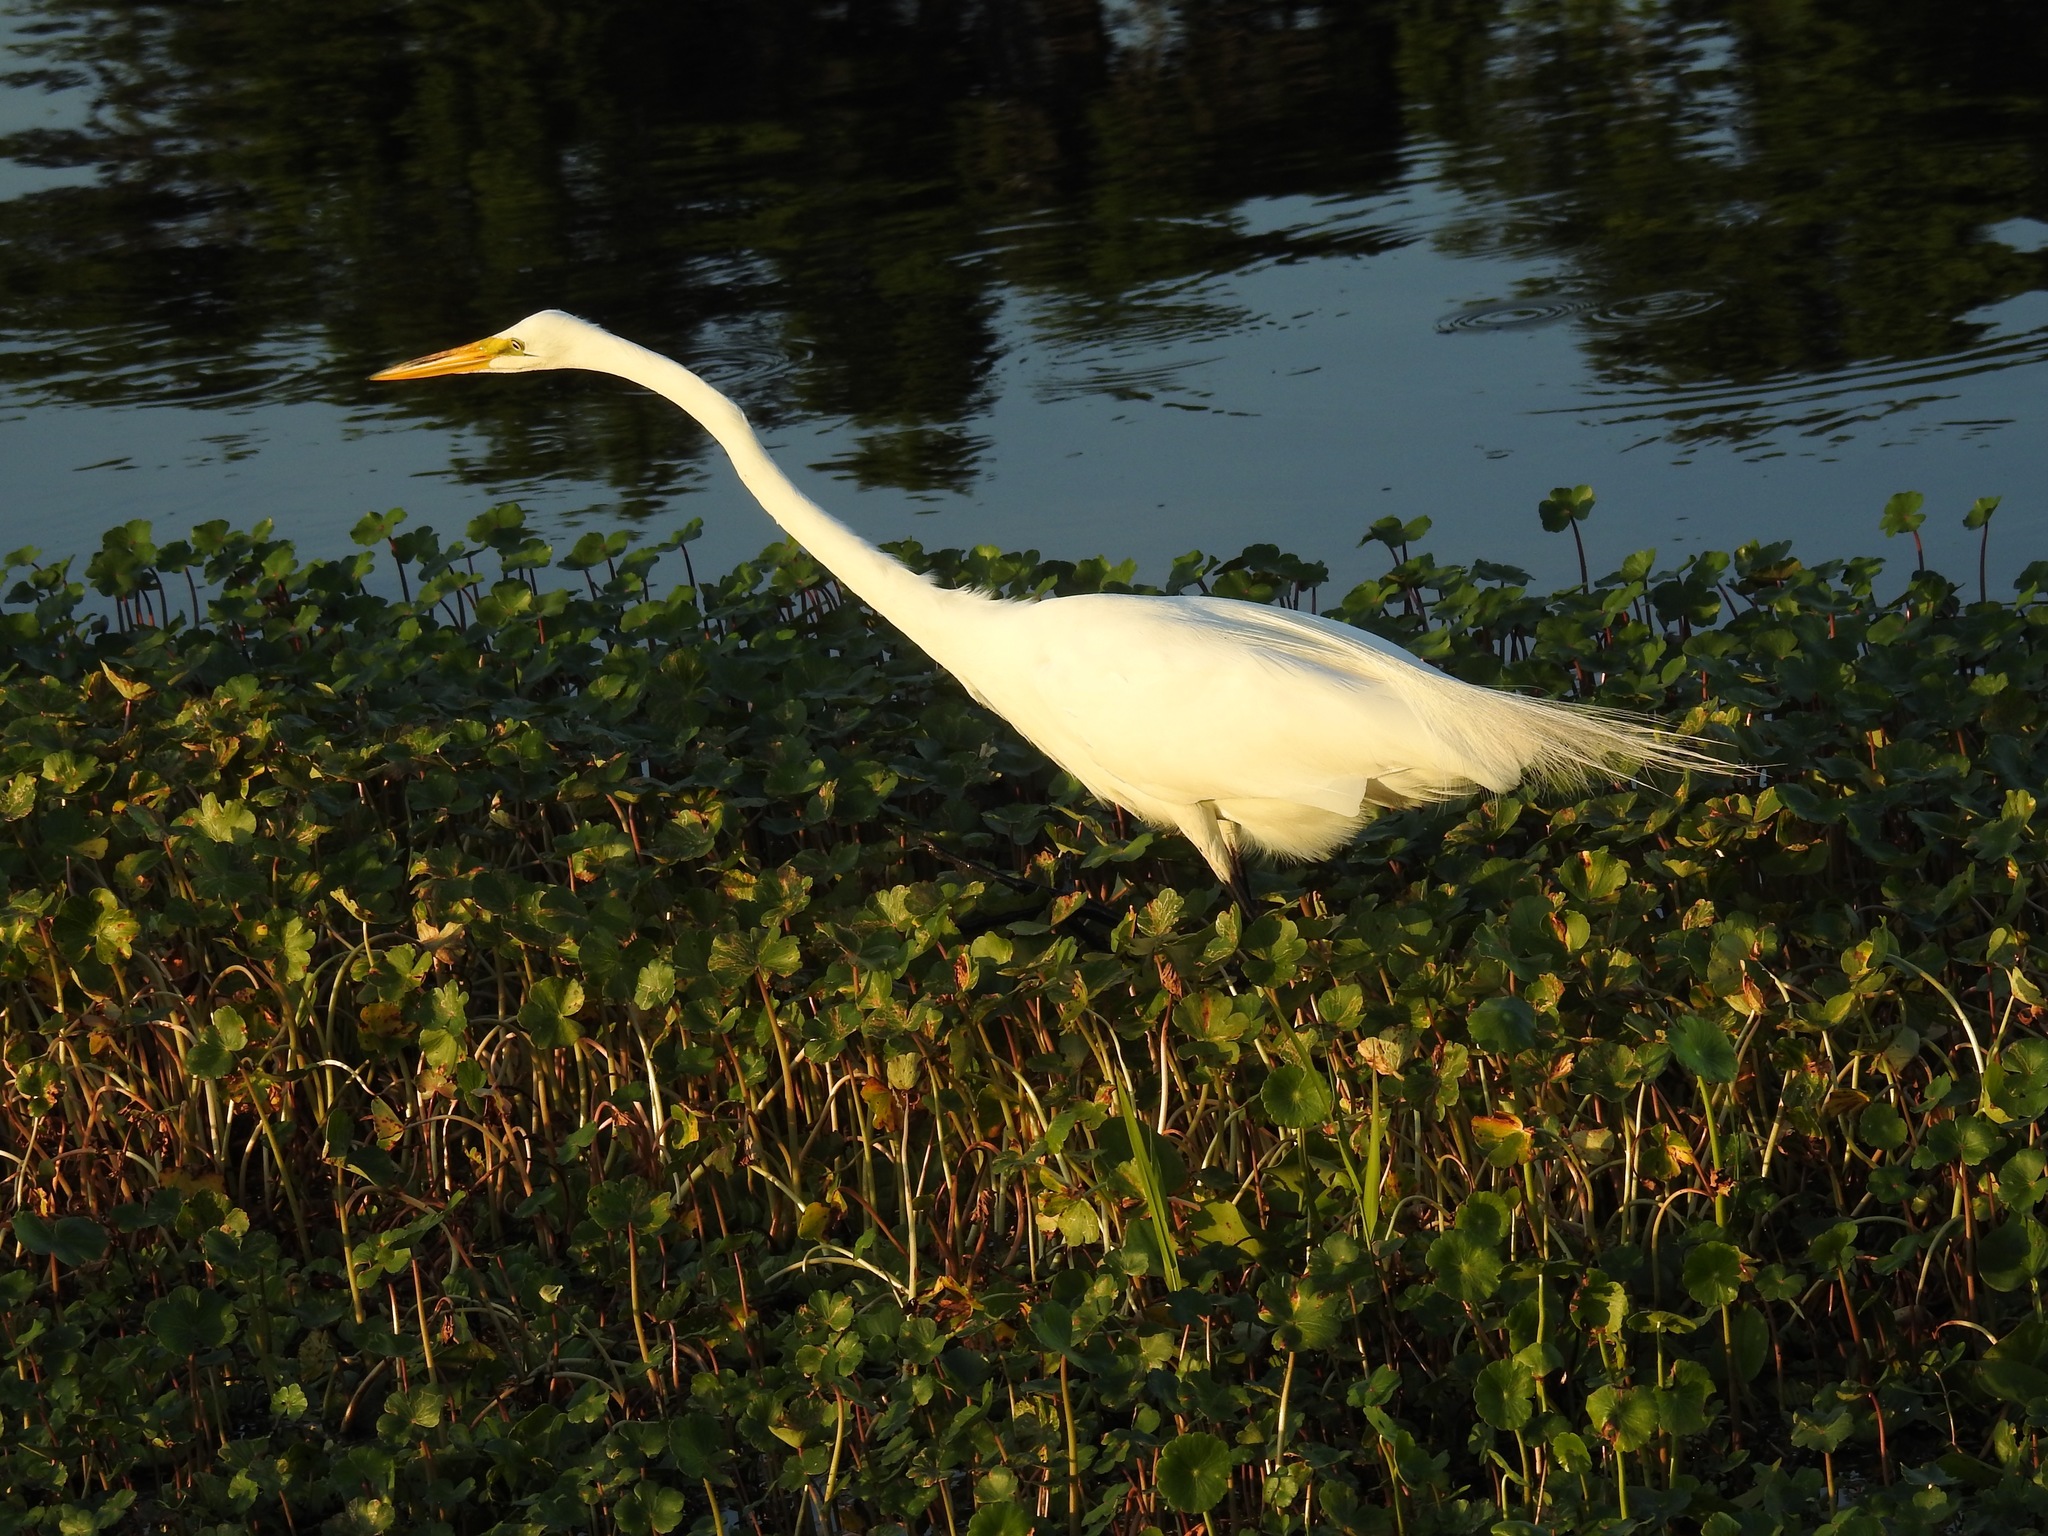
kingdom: Animalia
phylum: Chordata
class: Aves
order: Pelecaniformes
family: Ardeidae
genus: Ardea
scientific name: Ardea alba
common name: Great egret
